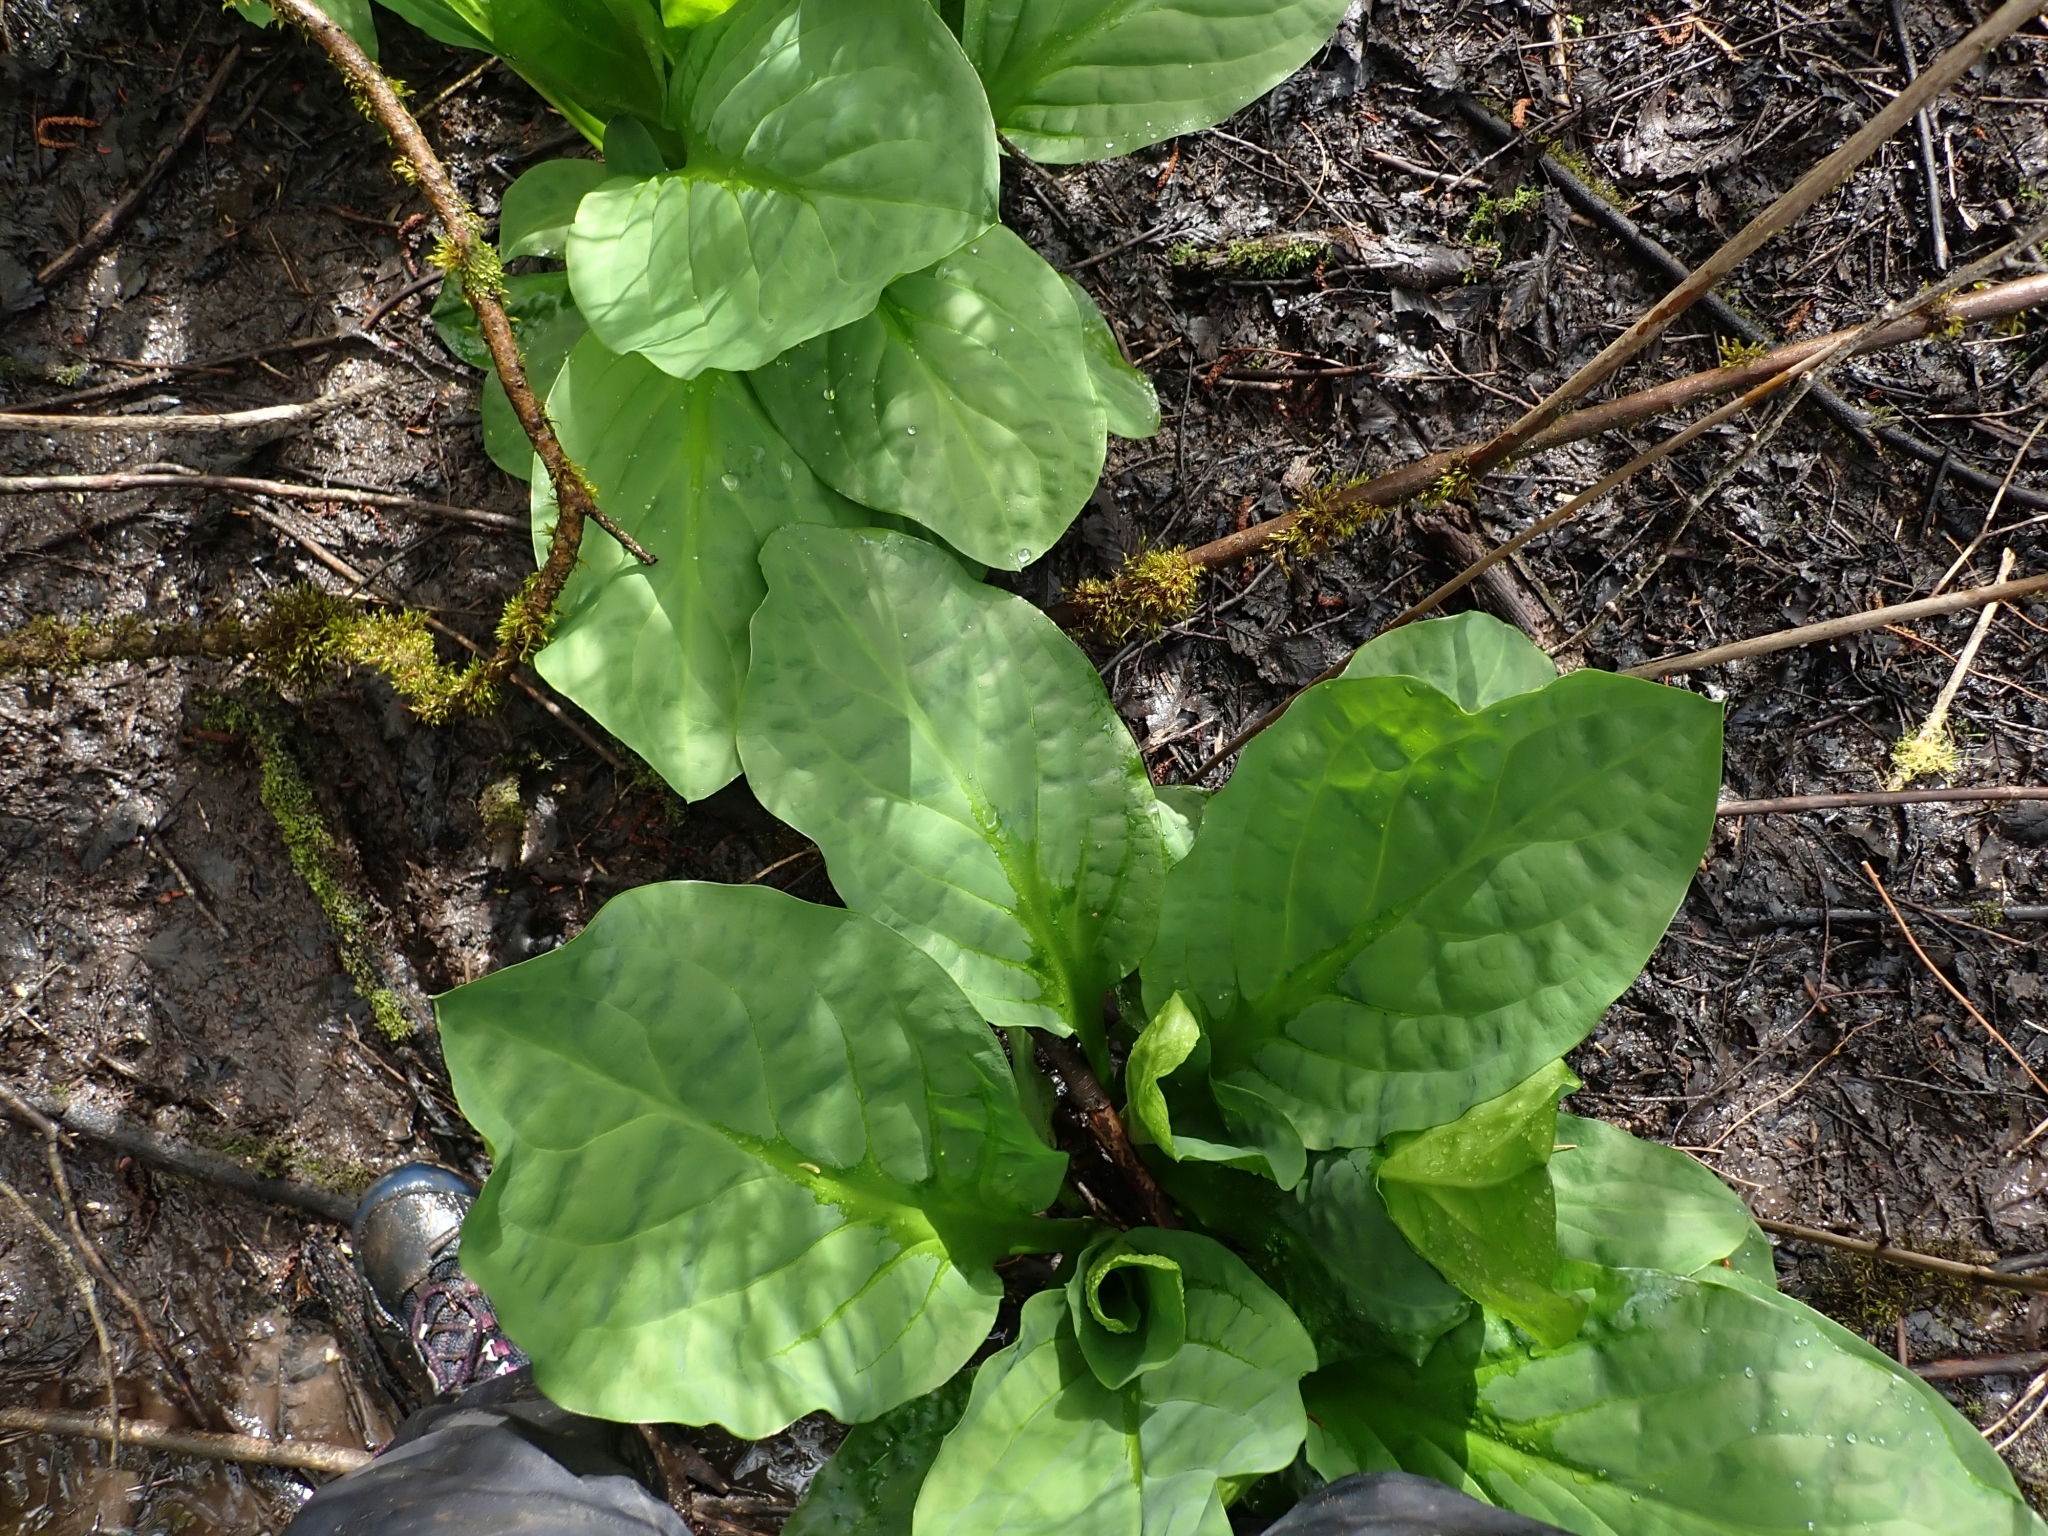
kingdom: Plantae
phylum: Tracheophyta
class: Liliopsida
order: Alismatales
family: Araceae
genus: Lysichiton
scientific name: Lysichiton americanus
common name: American skunk cabbage
